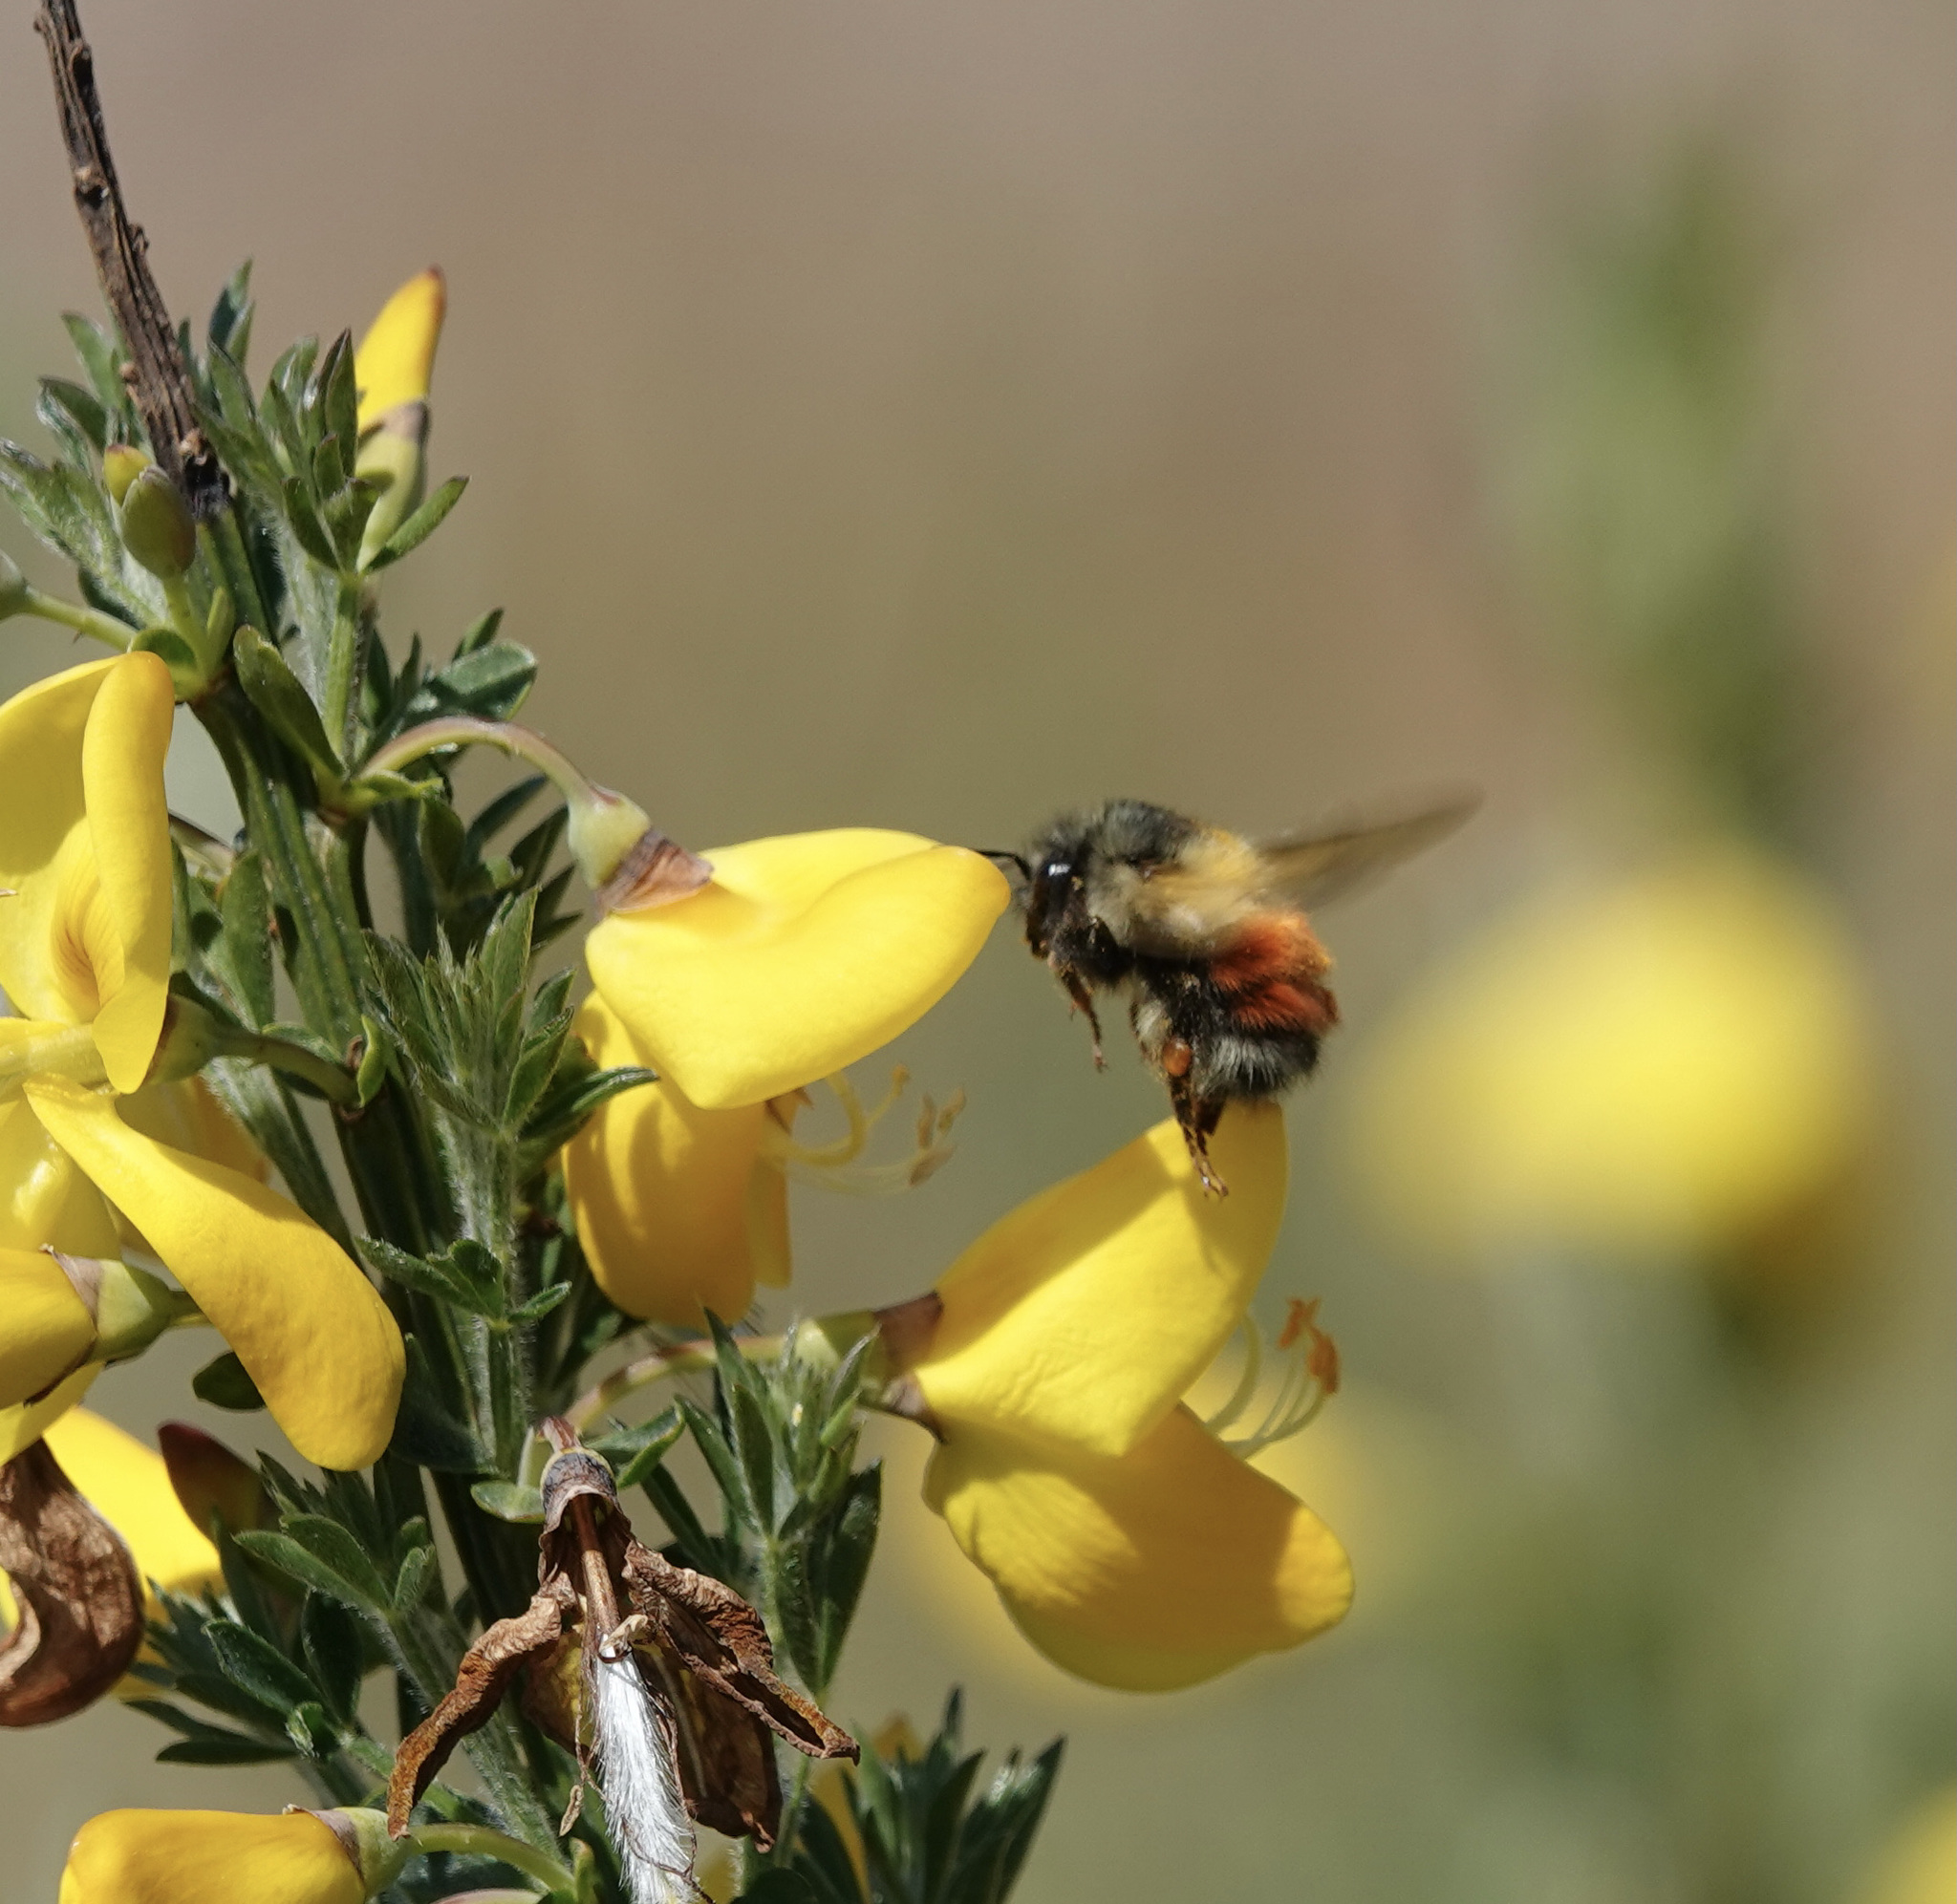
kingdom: Animalia
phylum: Arthropoda
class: Insecta
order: Hymenoptera
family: Apidae
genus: Bombus
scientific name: Bombus melanopygus
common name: Black tail bumble bee
